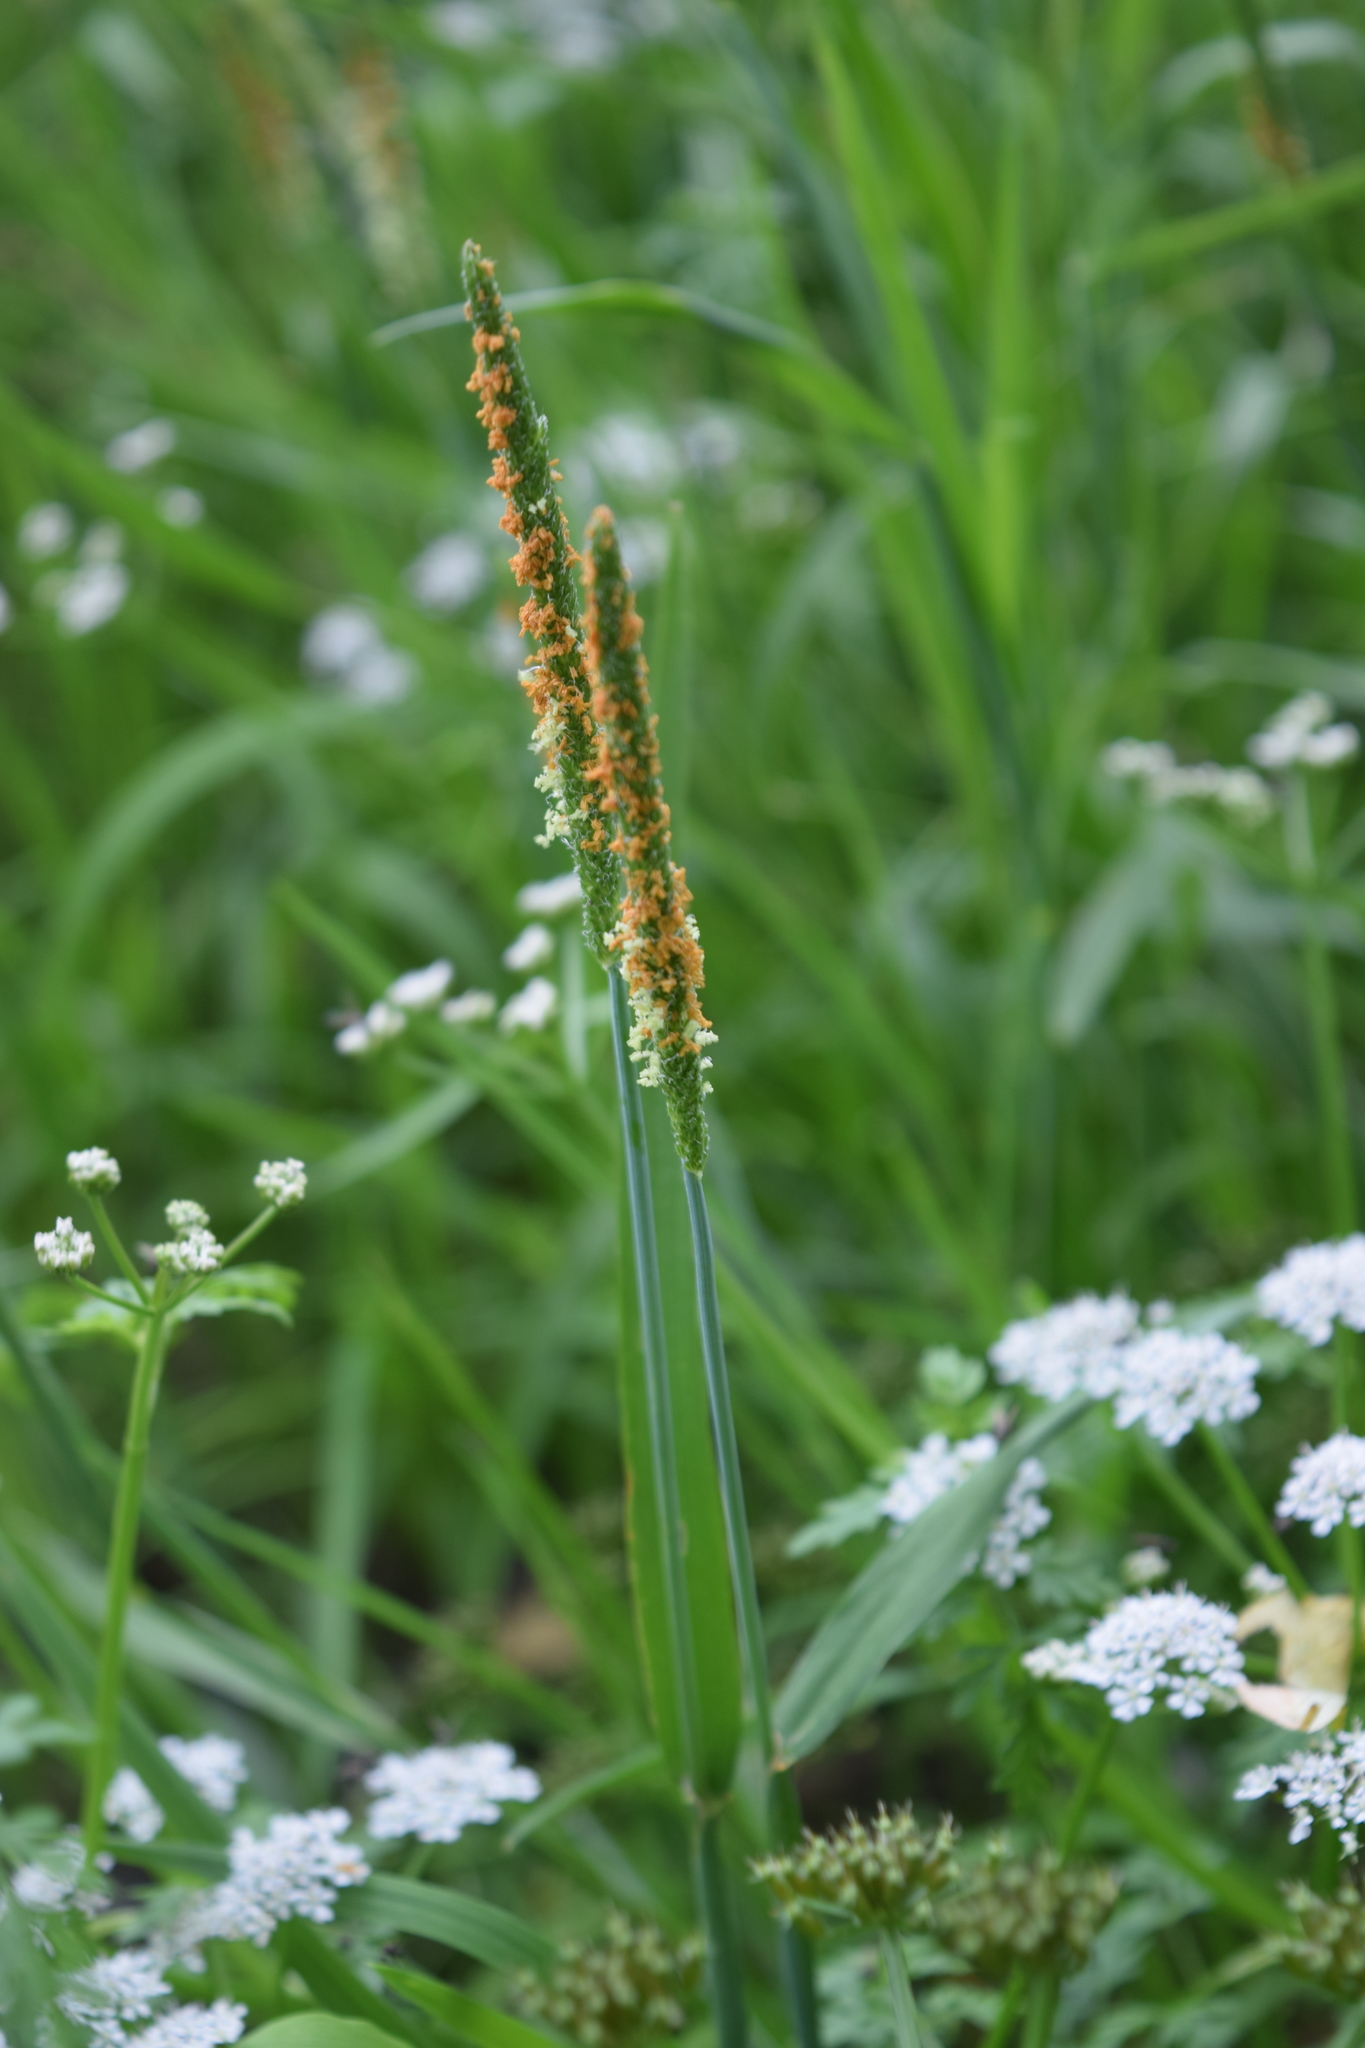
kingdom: Plantae
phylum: Tracheophyta
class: Liliopsida
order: Poales
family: Poaceae
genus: Alopecurus
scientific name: Alopecurus aequalis
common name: Orange foxtail
